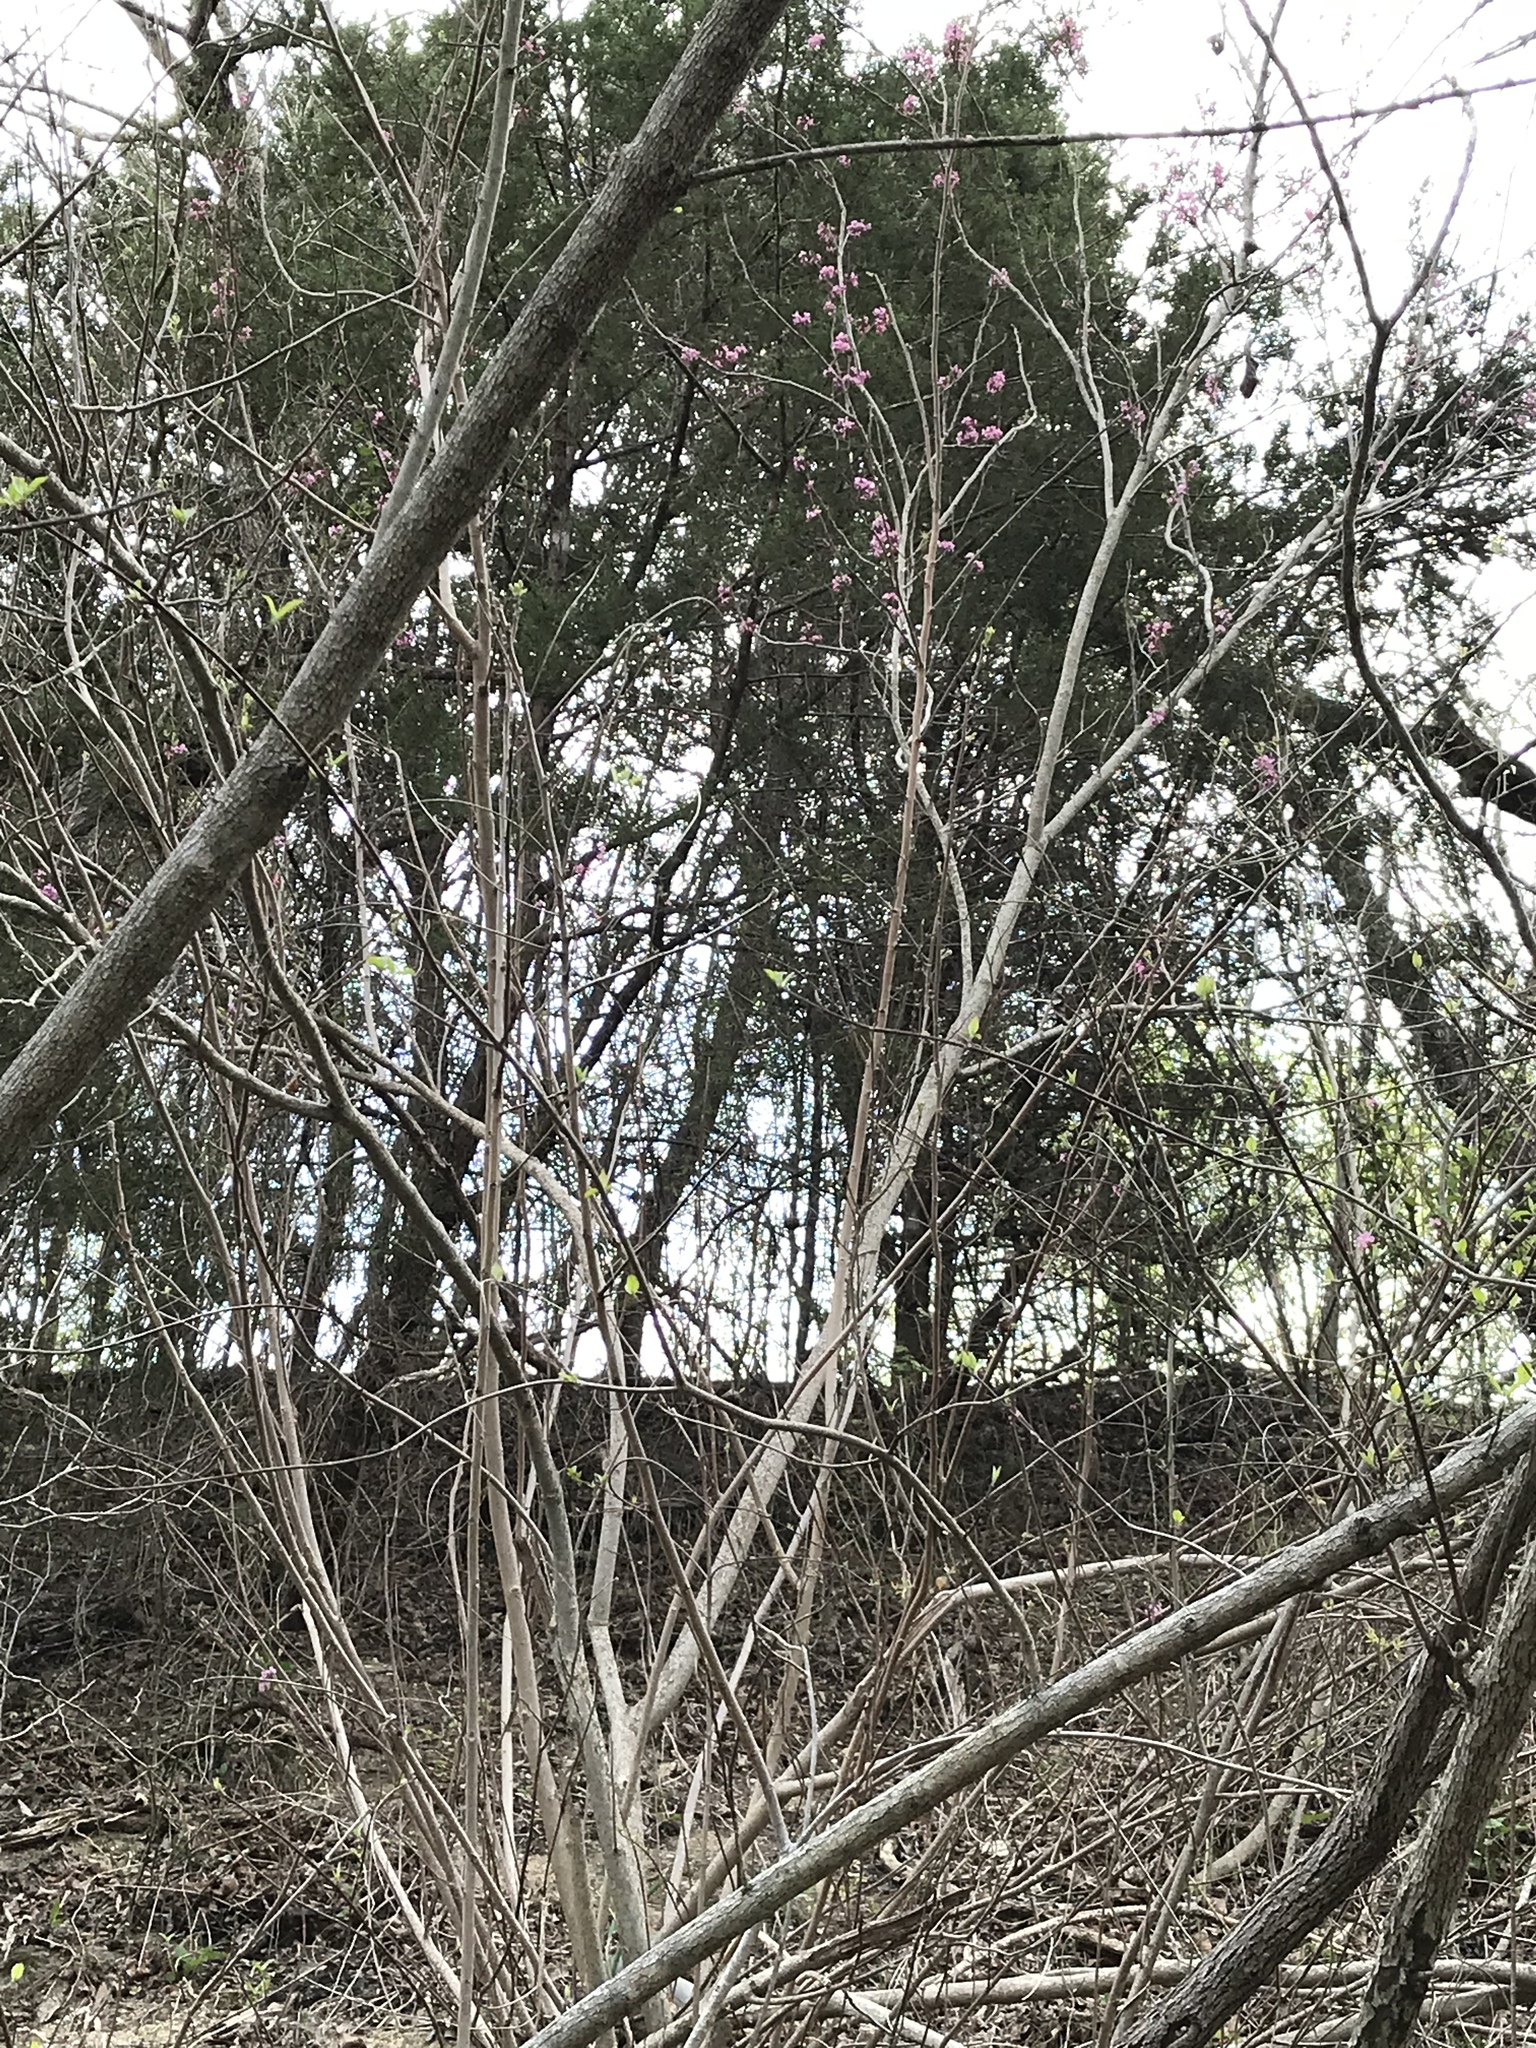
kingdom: Plantae
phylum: Tracheophyta
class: Magnoliopsida
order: Sapindales
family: Sapindaceae
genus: Ungnadia
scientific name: Ungnadia speciosa
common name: Texas-buckeye
